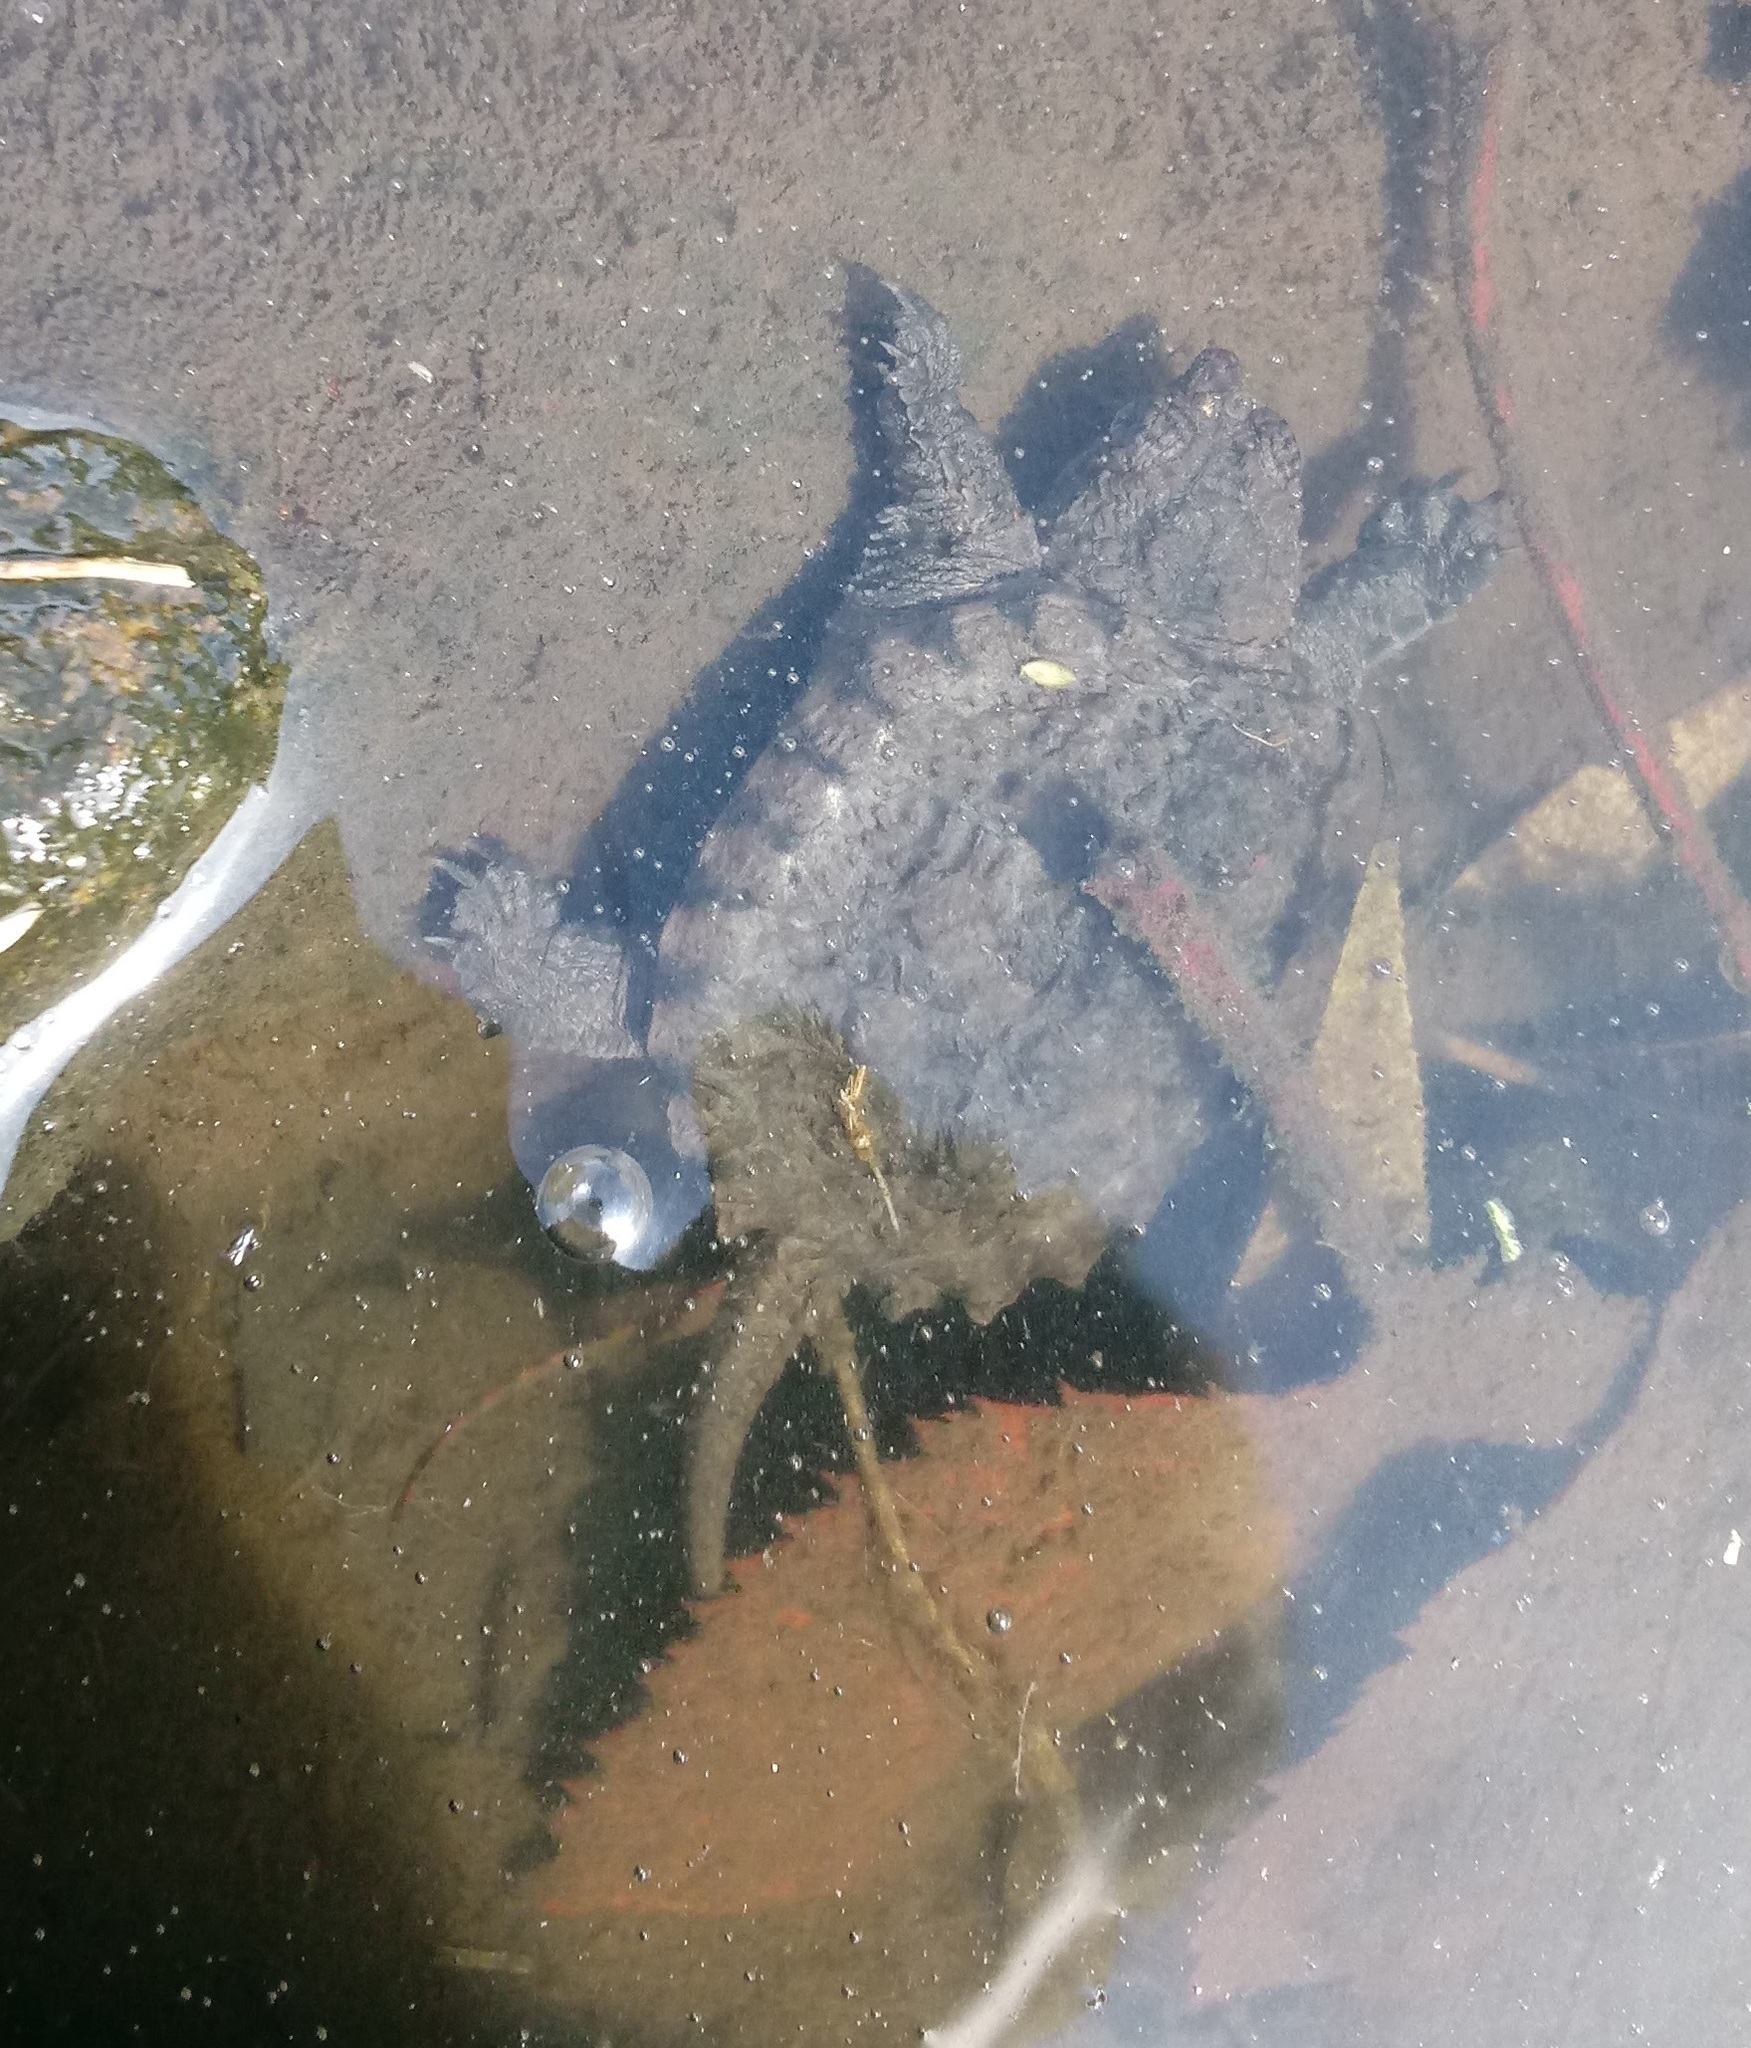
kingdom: Animalia
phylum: Chordata
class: Testudines
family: Chelydridae
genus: Chelydra
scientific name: Chelydra serpentina
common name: Common snapping turtle
